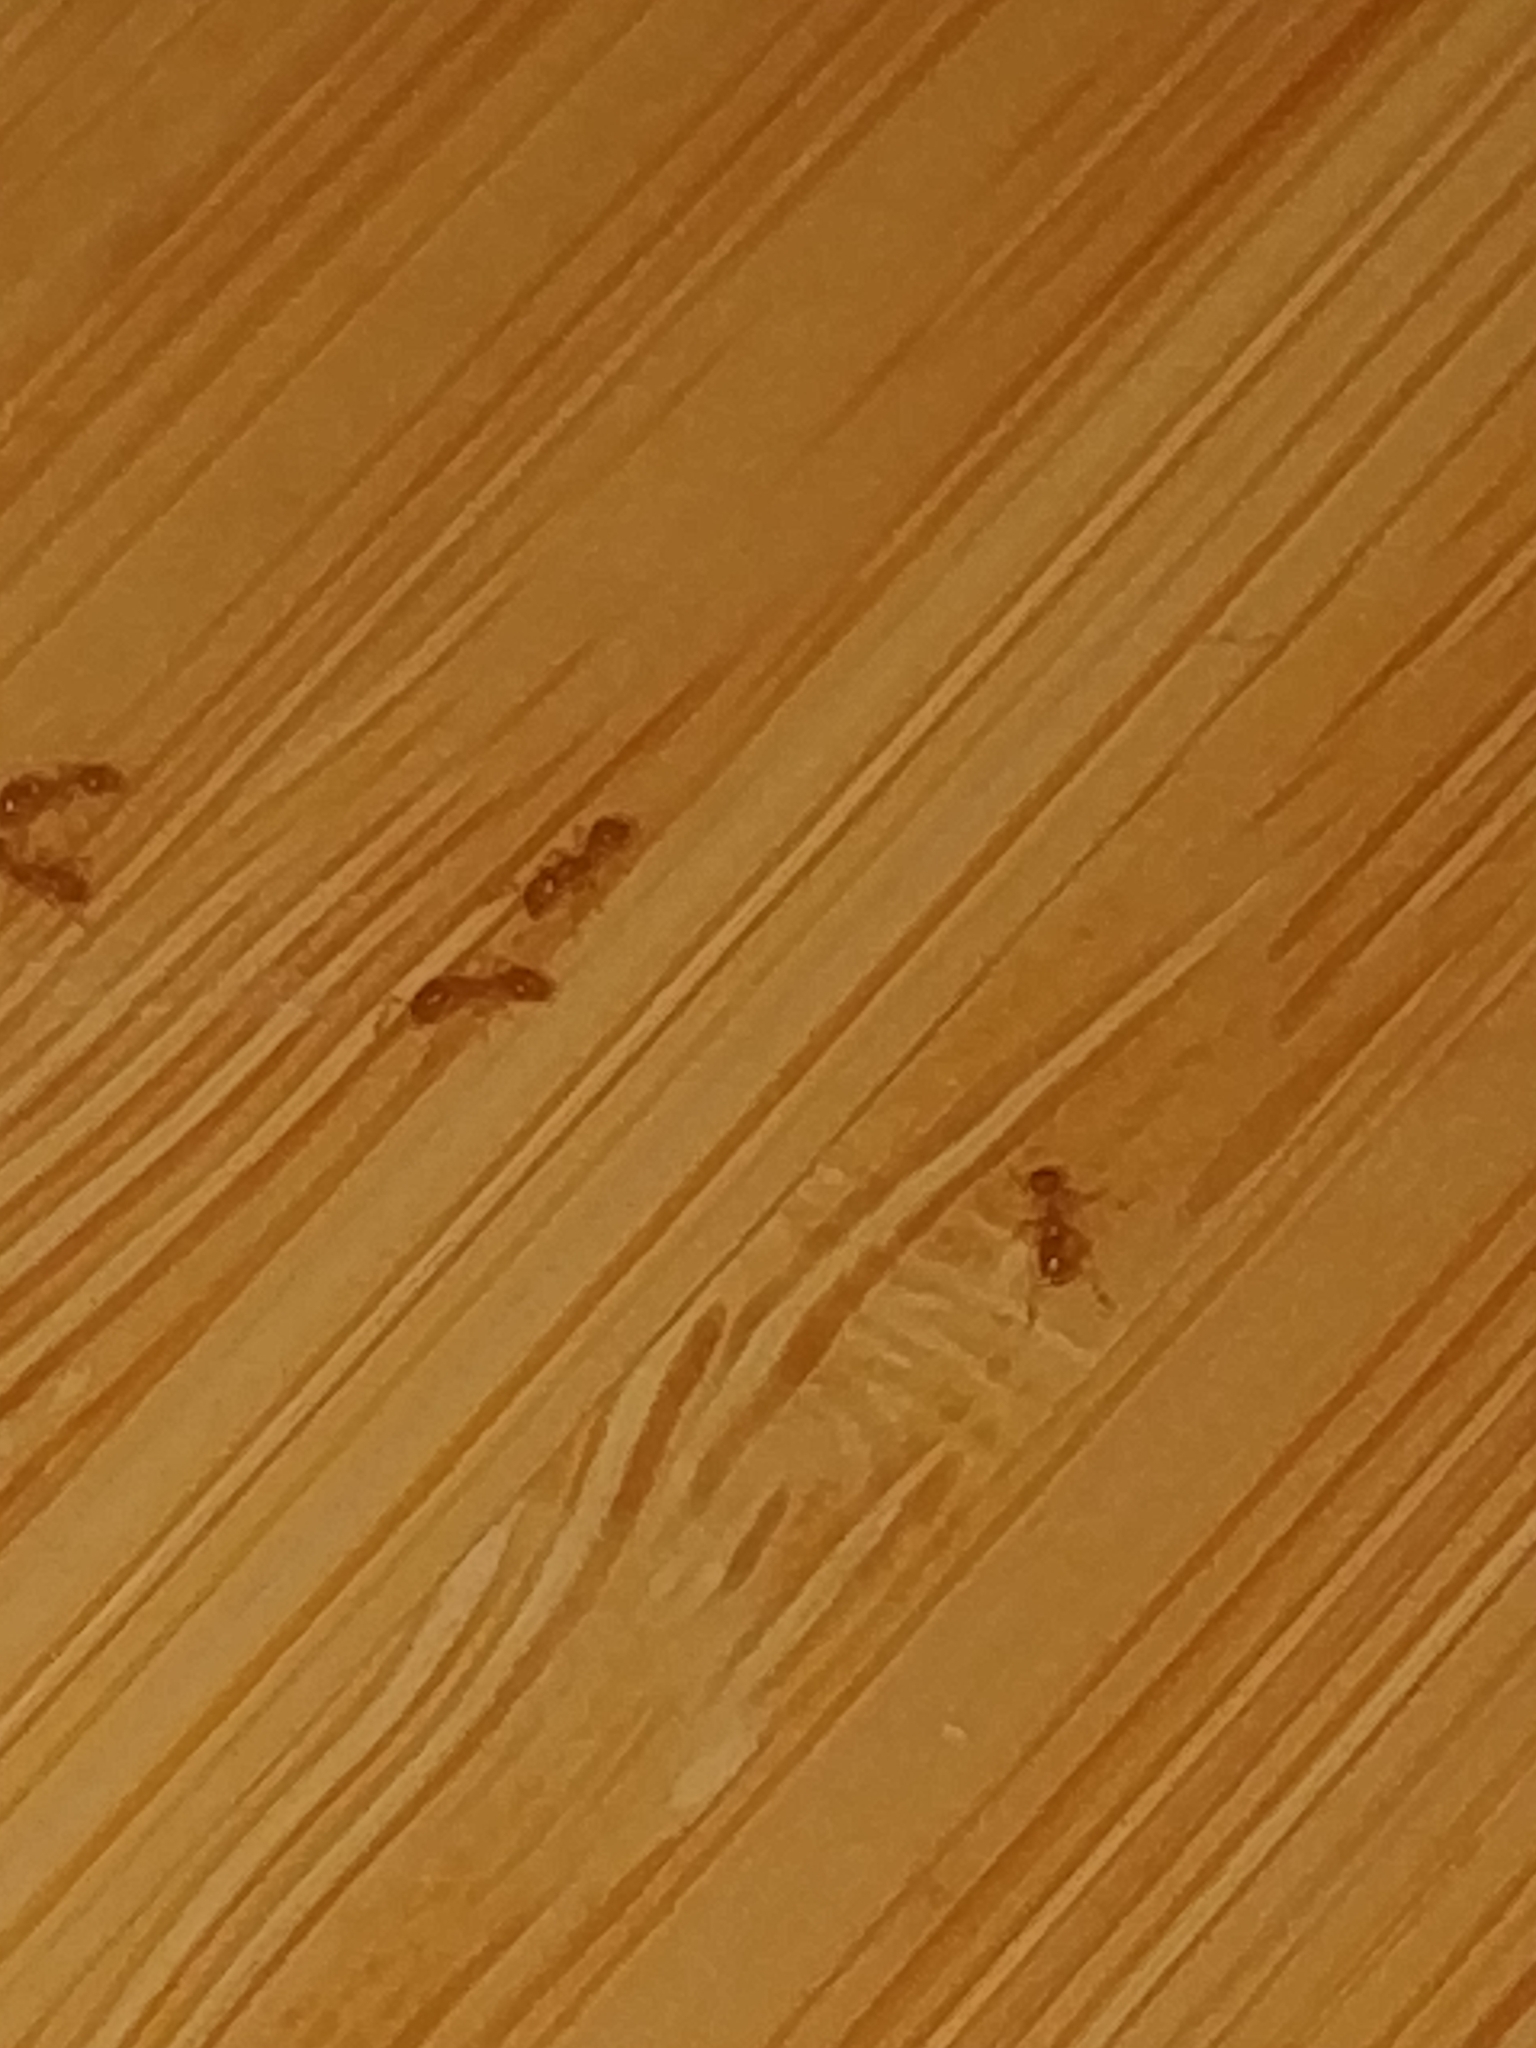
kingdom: Animalia
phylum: Arthropoda
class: Insecta
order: Hymenoptera
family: Formicidae
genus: Solenopsis
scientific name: Solenopsis molesta
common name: Thief ant
